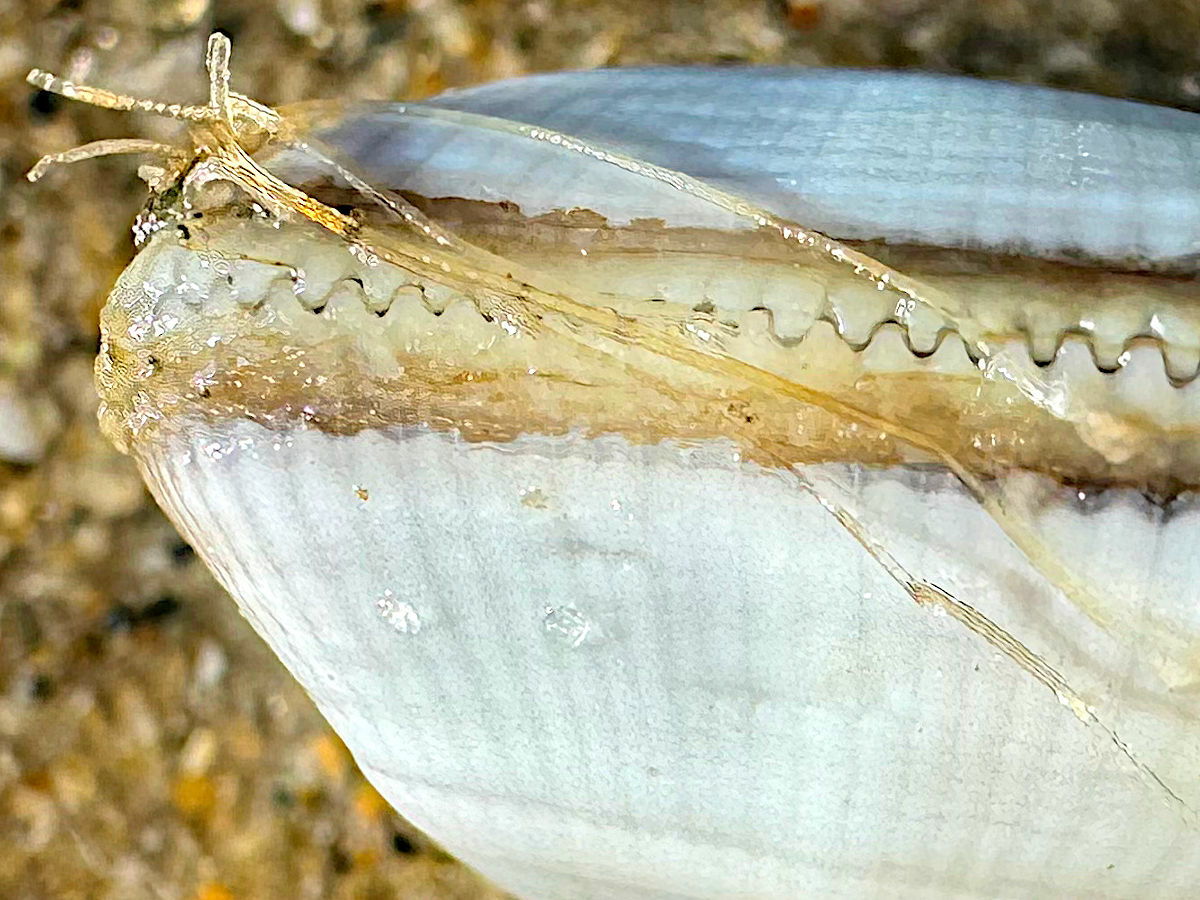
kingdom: Animalia
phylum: Cnidaria
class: Hydrozoa
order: Leptothecata
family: Lovenellidae
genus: Eucheilota
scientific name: Eucheilota bakeri
